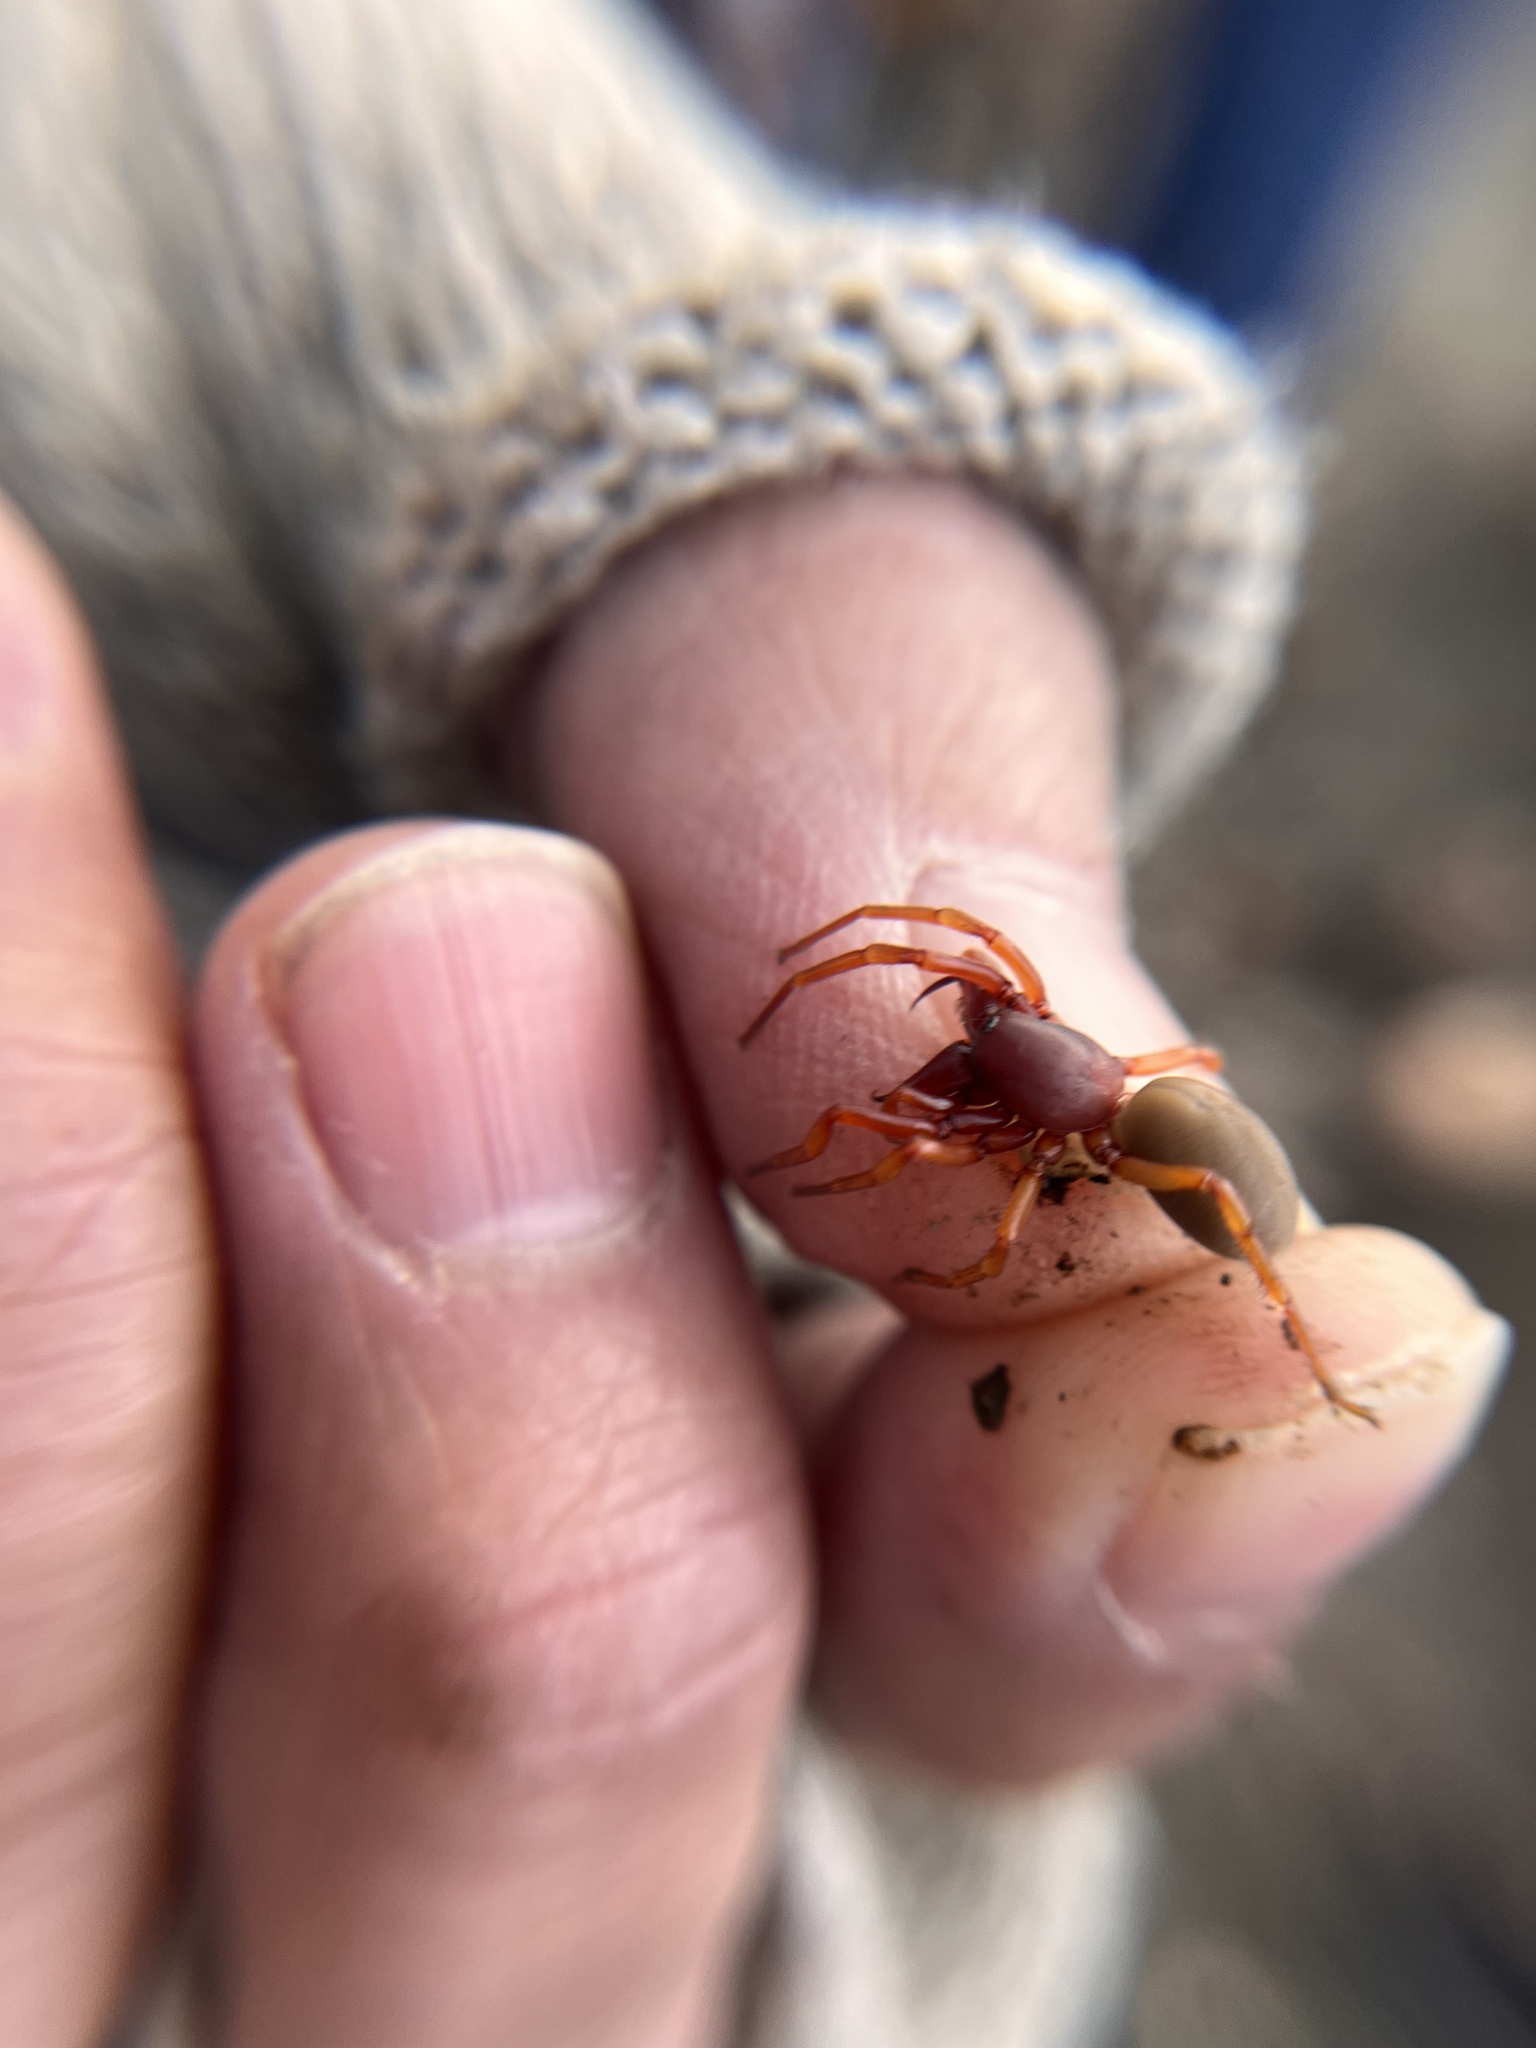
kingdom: Animalia
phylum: Arthropoda
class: Arachnida
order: Araneae
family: Dysderidae
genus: Dysdera
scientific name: Dysdera crocata
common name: Woodlouse spider
